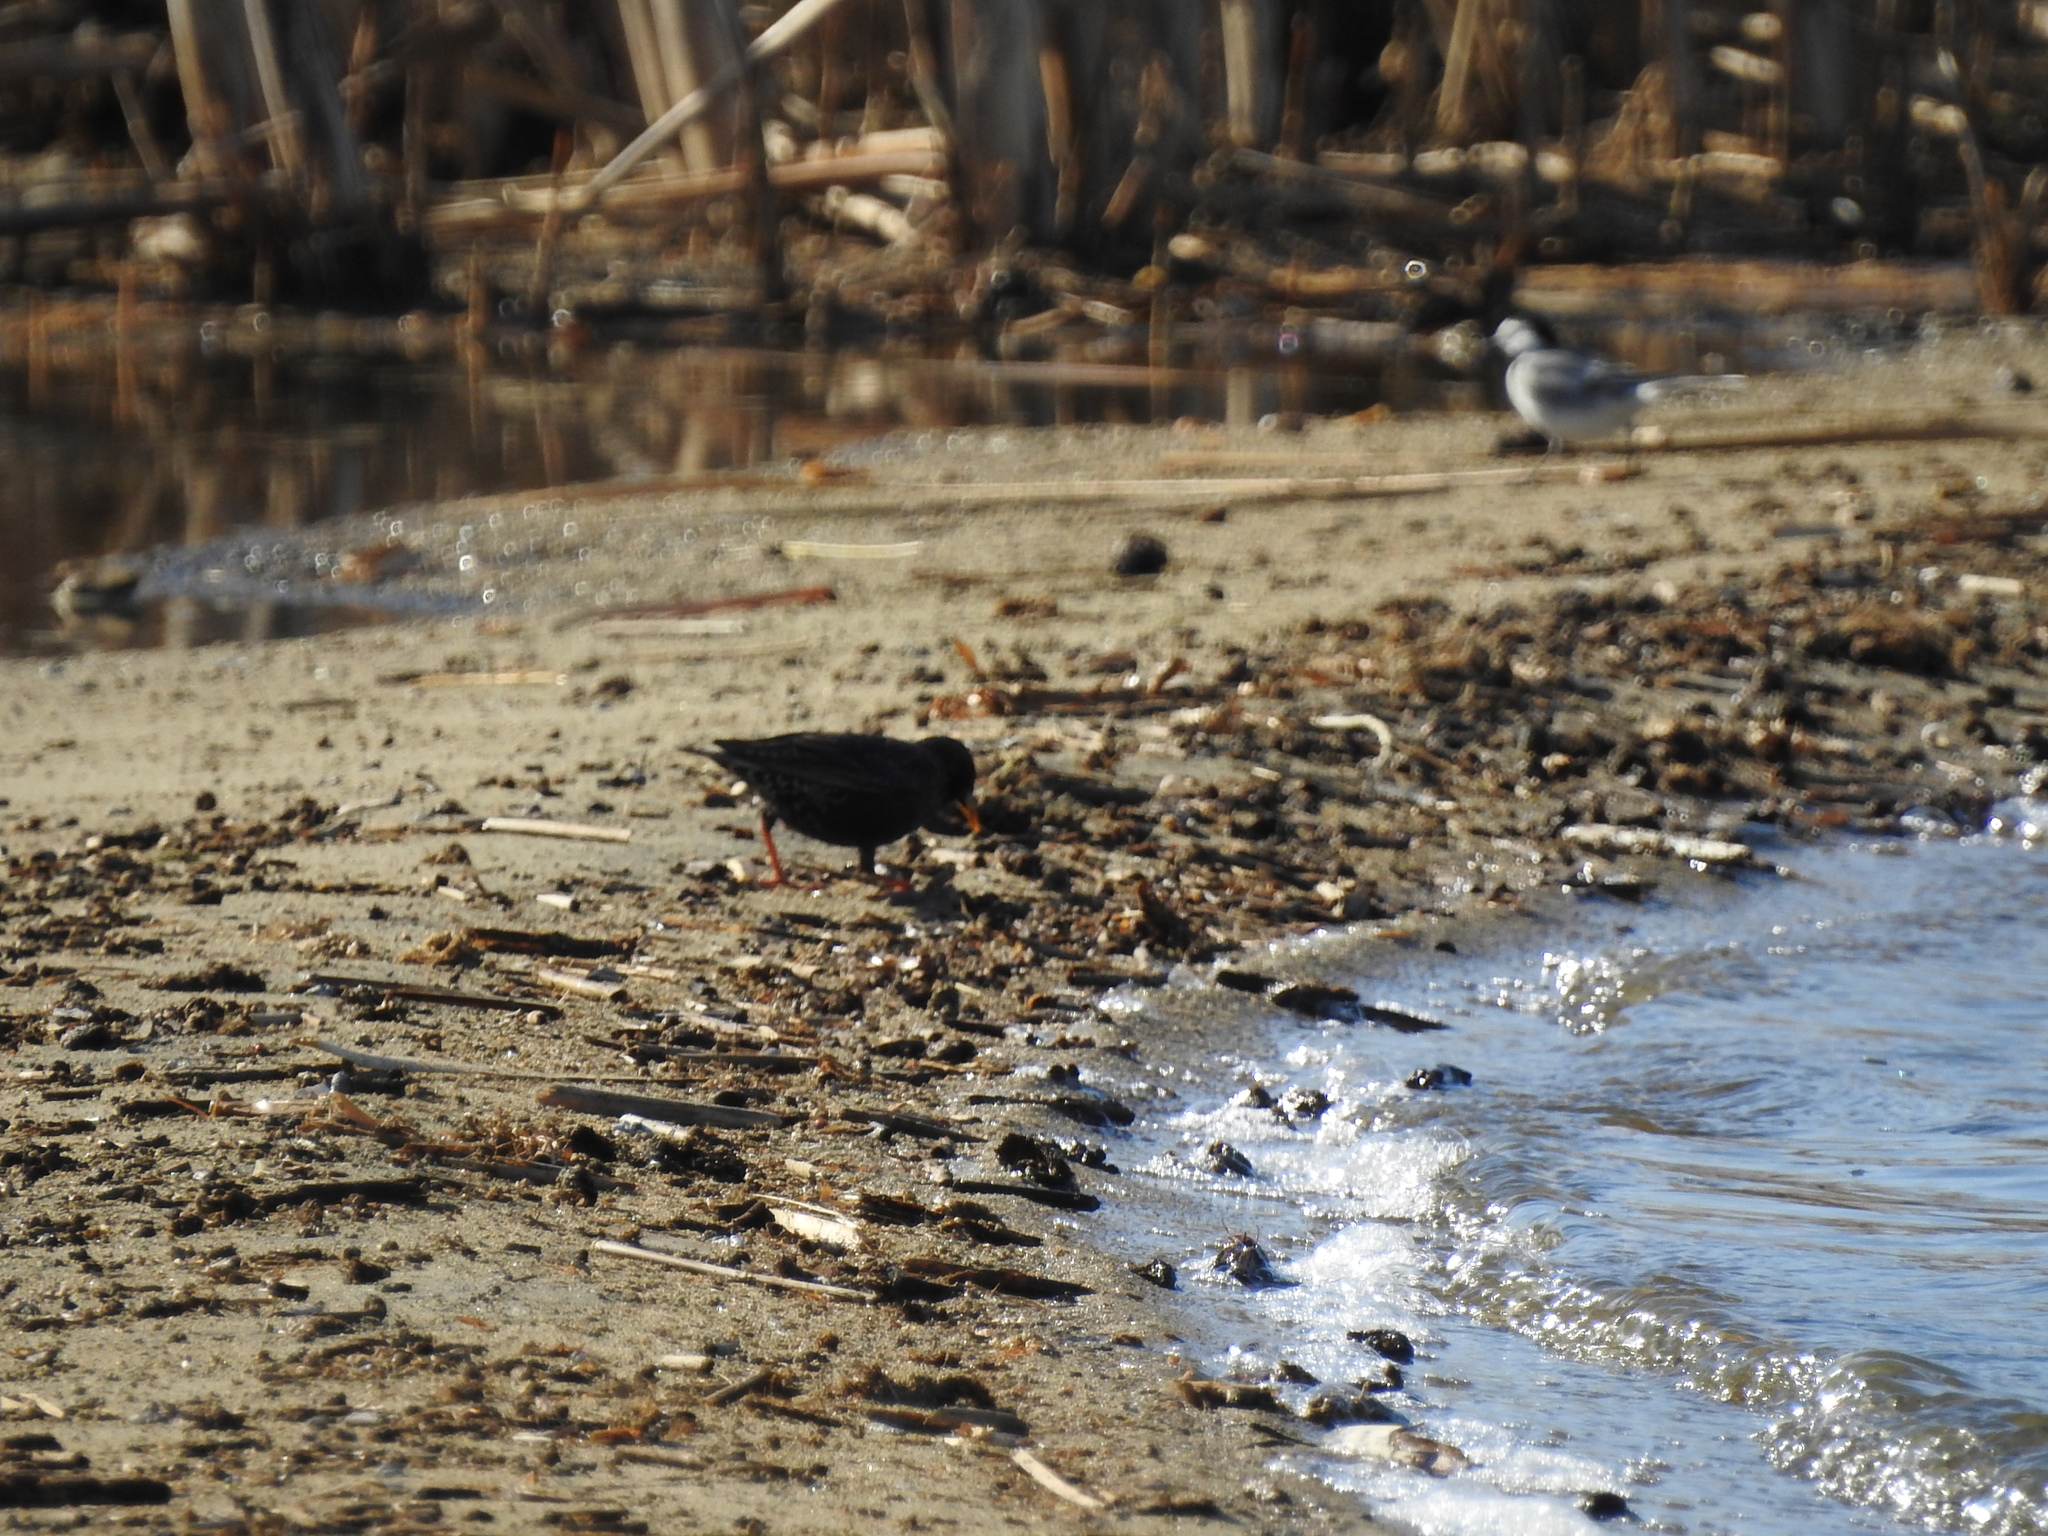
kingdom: Animalia
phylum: Chordata
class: Aves
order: Passeriformes
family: Sturnidae
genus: Sturnus
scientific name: Sturnus vulgaris
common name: Common starling
